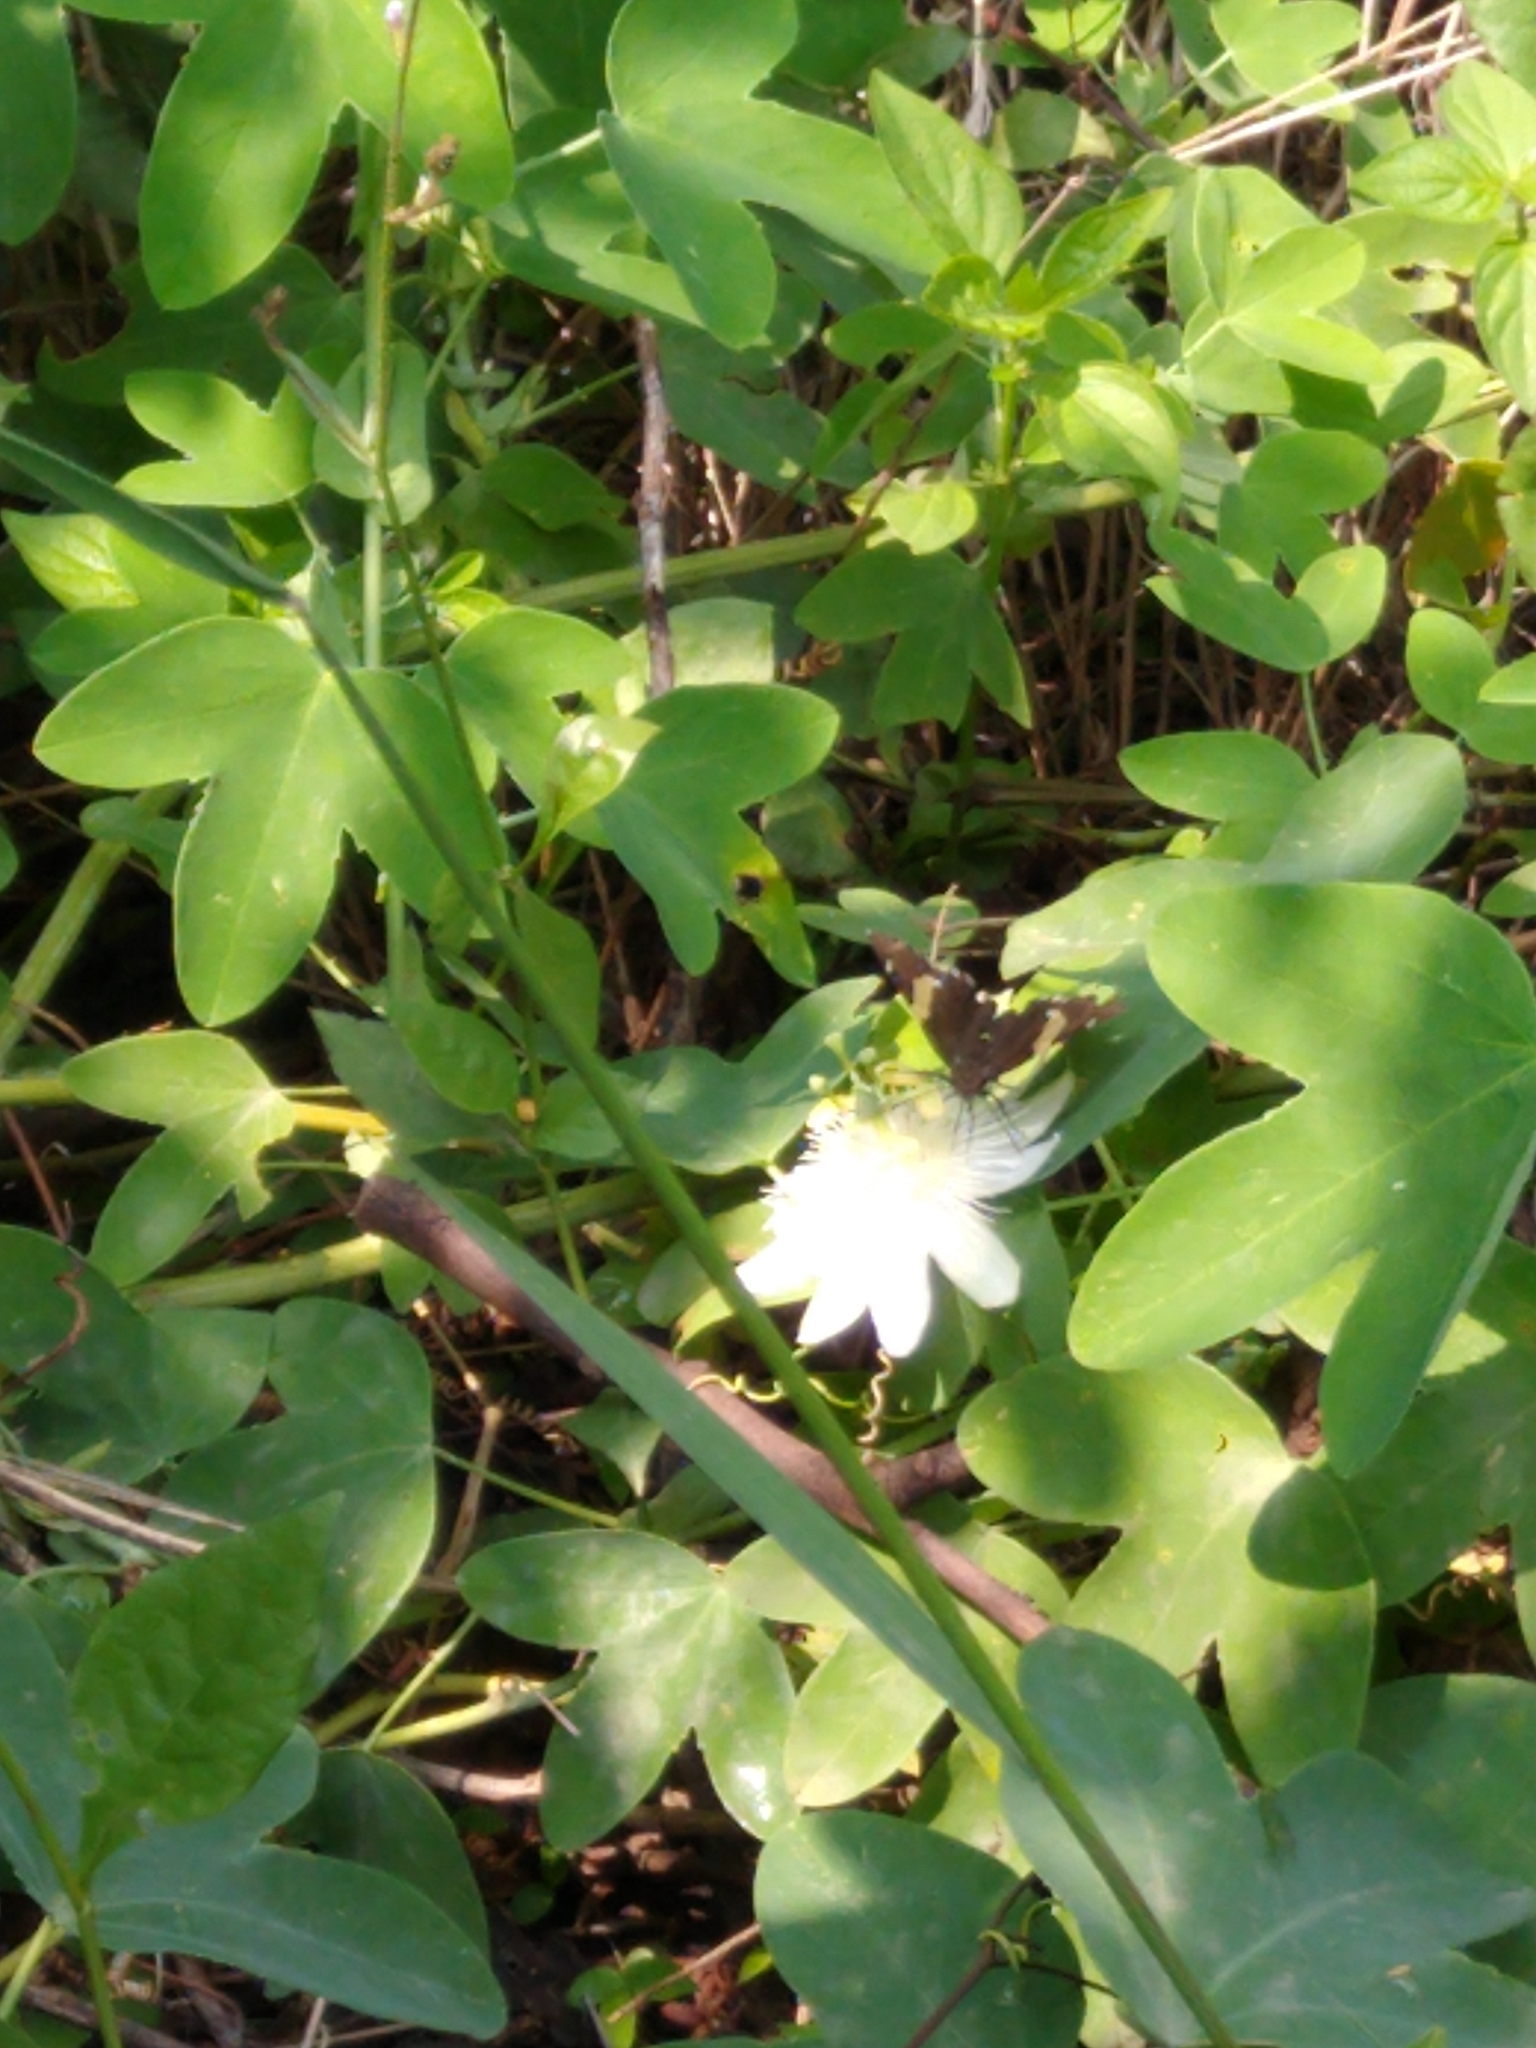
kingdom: Plantae
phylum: Tracheophyta
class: Magnoliopsida
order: Malpighiales
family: Passifloraceae
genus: Passiflora
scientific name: Passiflora subpeltata
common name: White passionflower
